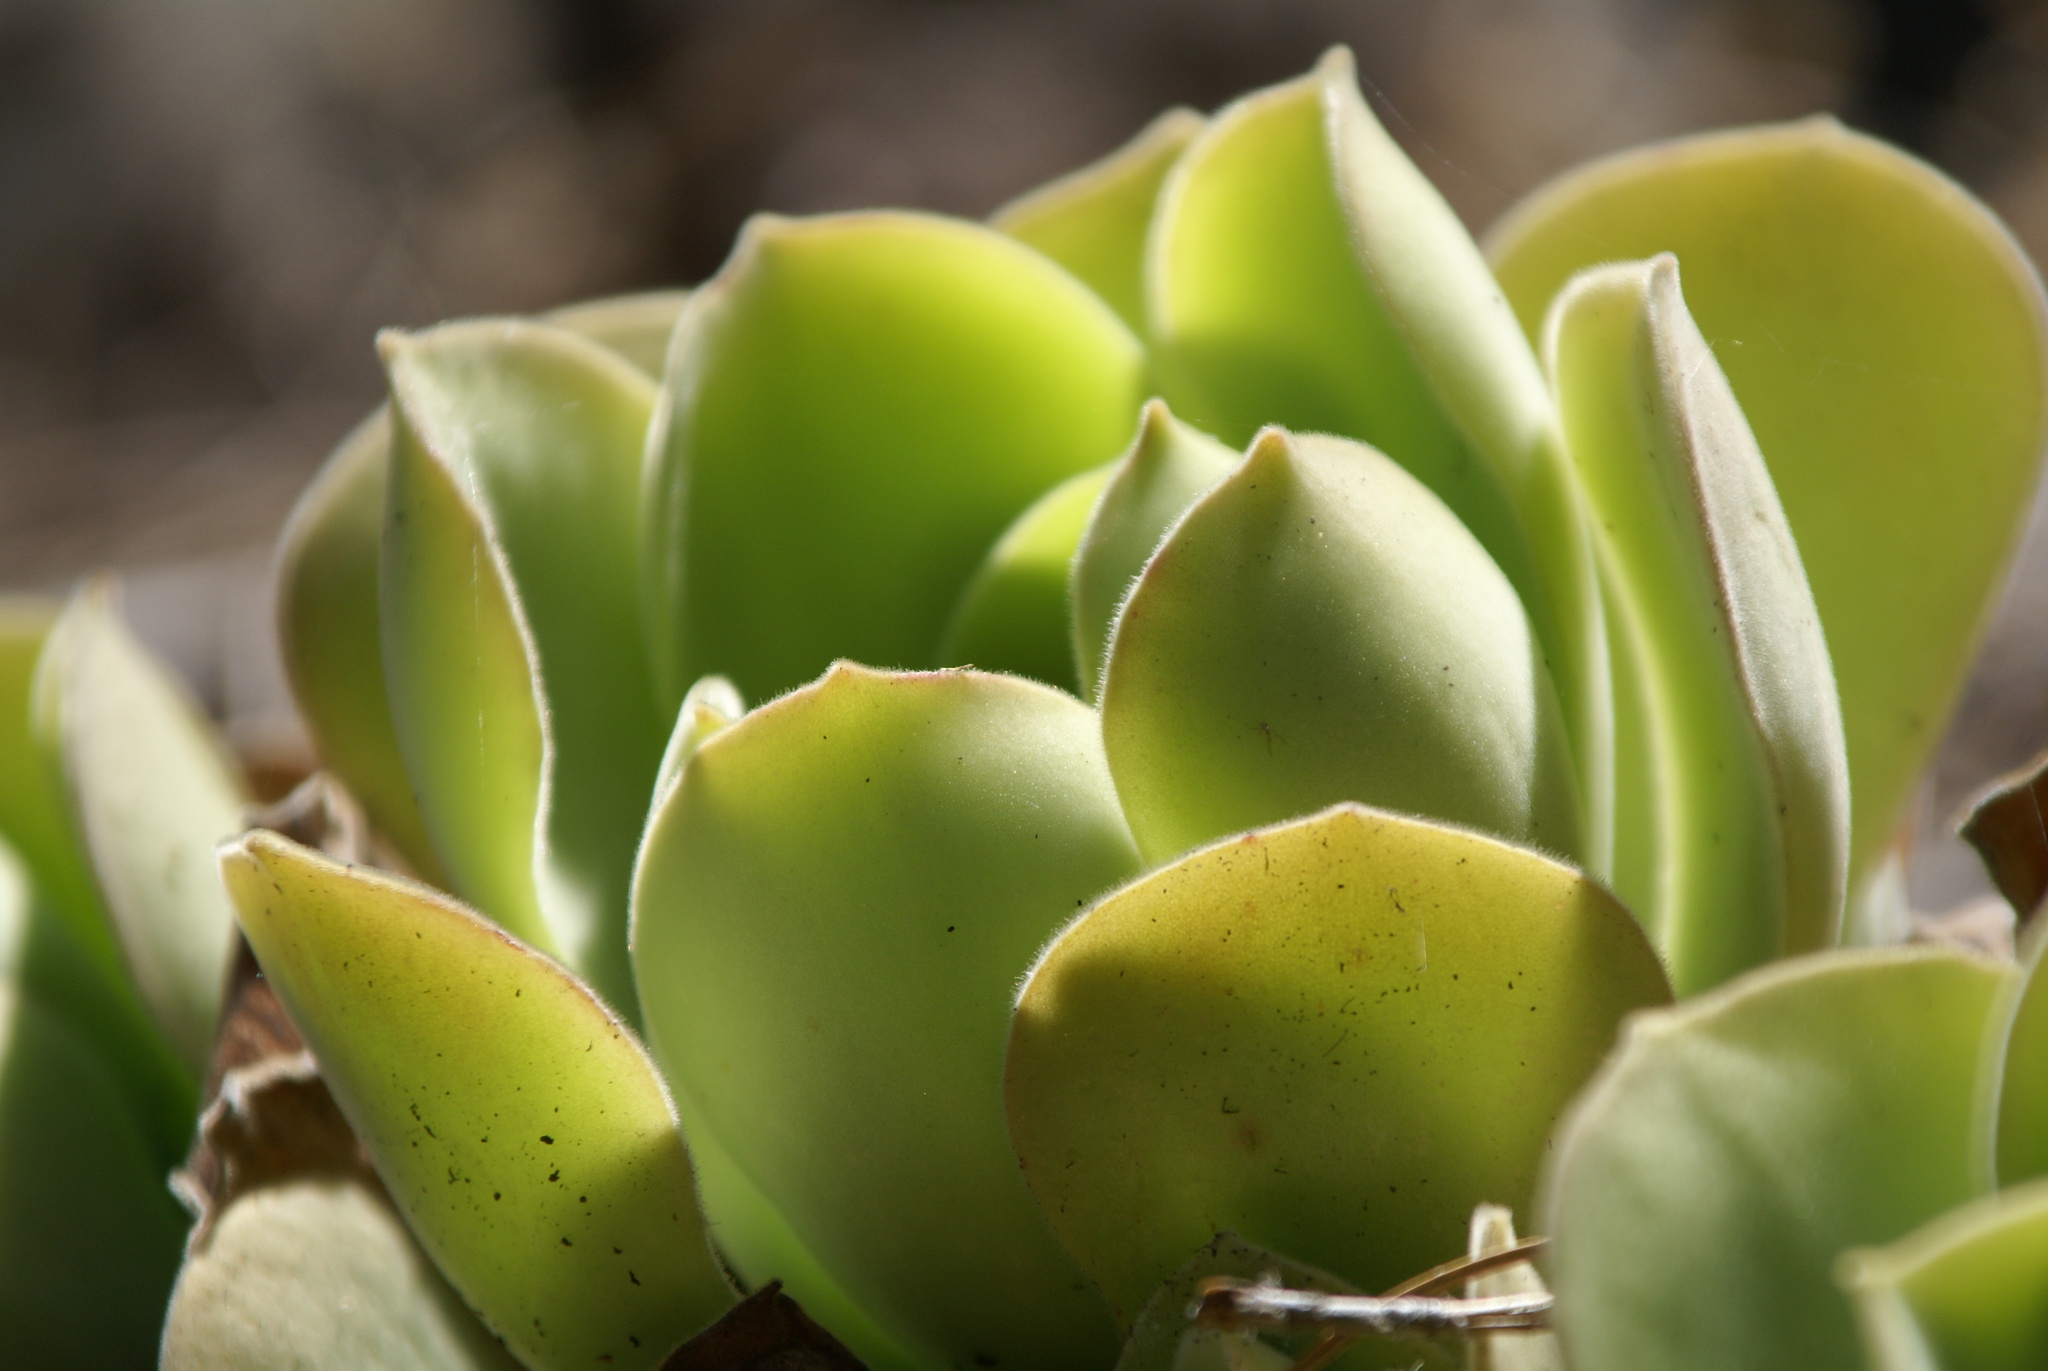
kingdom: Plantae
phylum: Tracheophyta
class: Magnoliopsida
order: Saxifragales
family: Crassulaceae
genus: Aeonium
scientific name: Aeonium canariense
